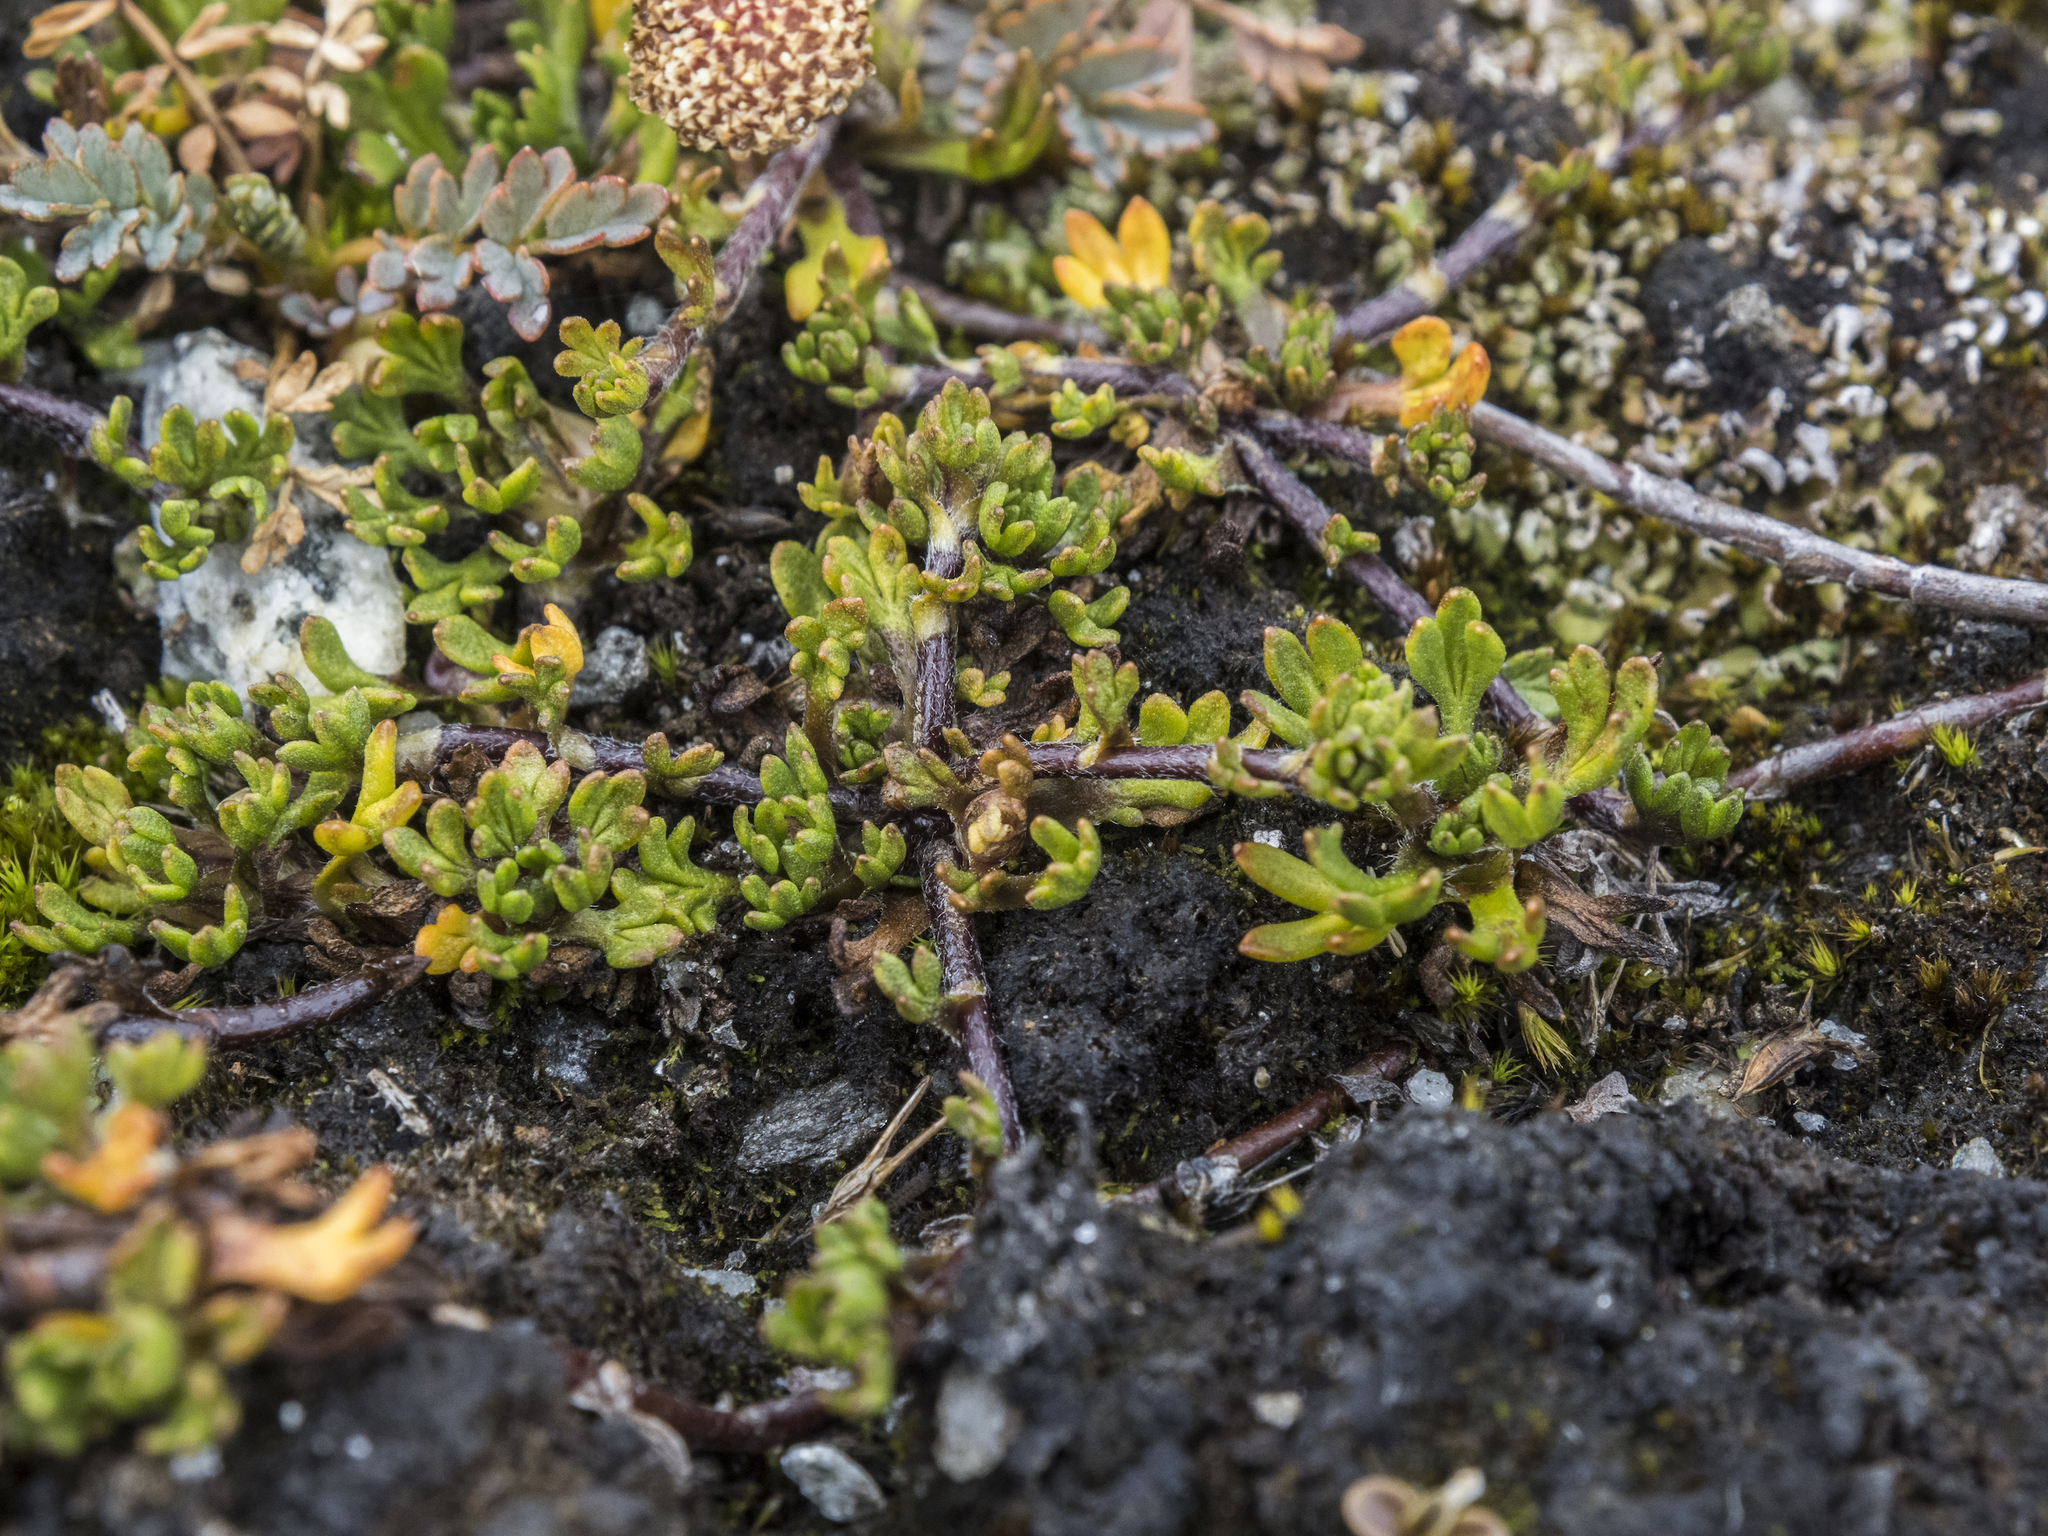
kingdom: Plantae
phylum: Tracheophyta
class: Magnoliopsida
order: Asterales
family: Asteraceae
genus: Leptinella
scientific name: Leptinella pectinata
